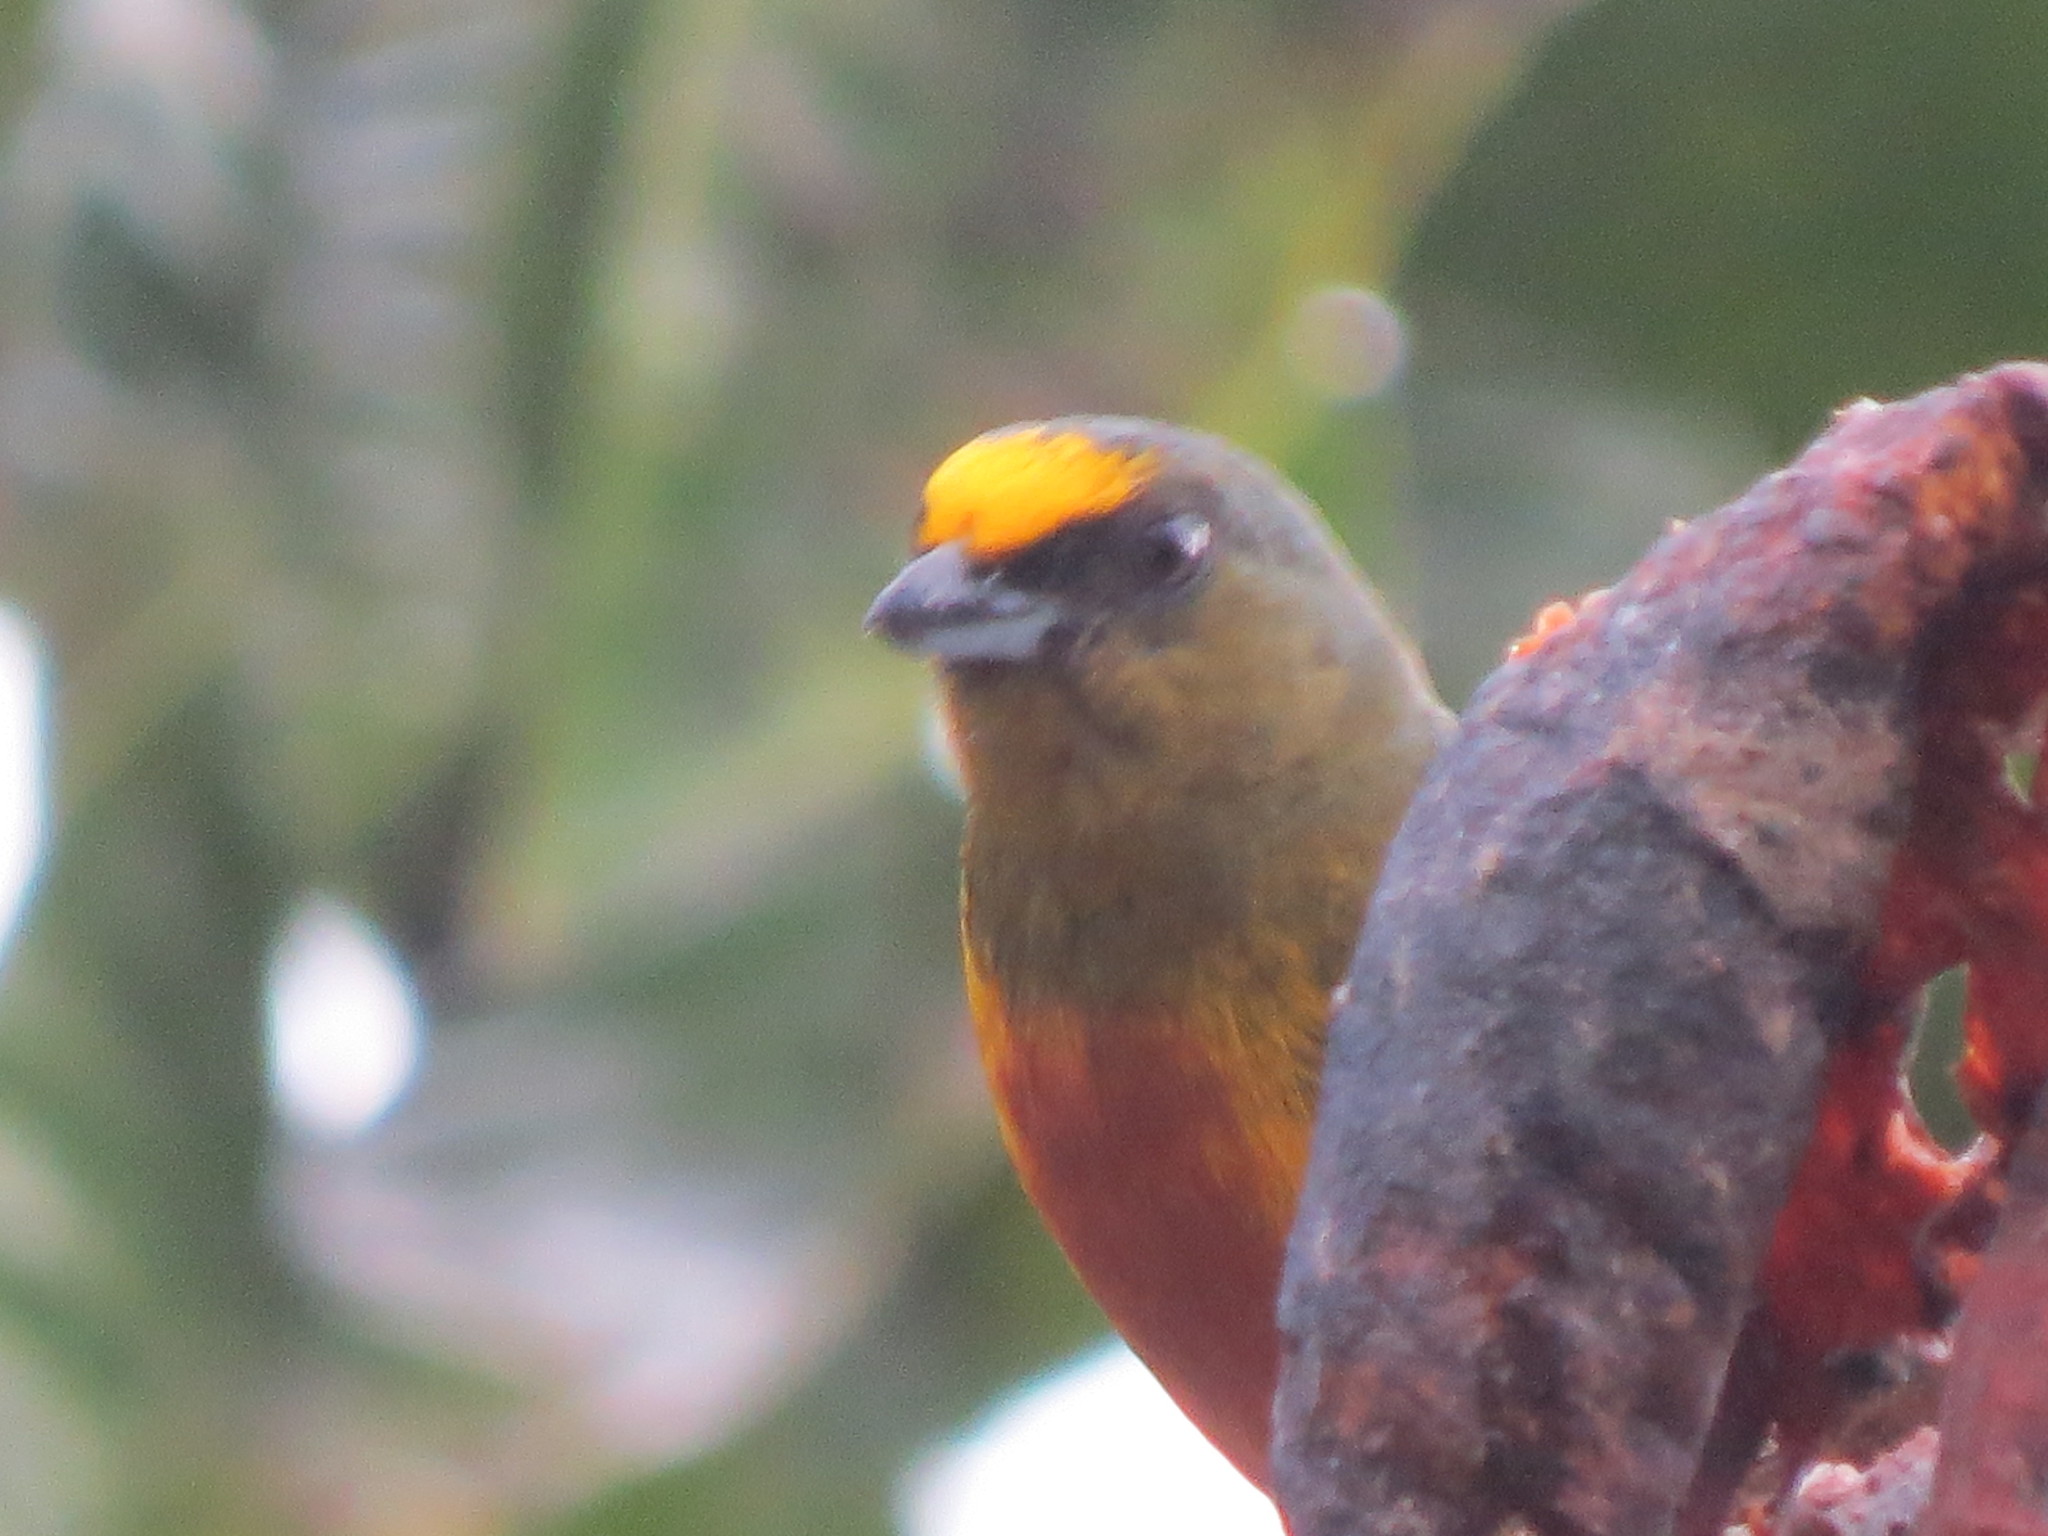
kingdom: Animalia
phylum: Chordata
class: Aves
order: Passeriformes
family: Fringillidae
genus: Euphonia
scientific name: Euphonia gouldi
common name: Olive-backed euphonia
